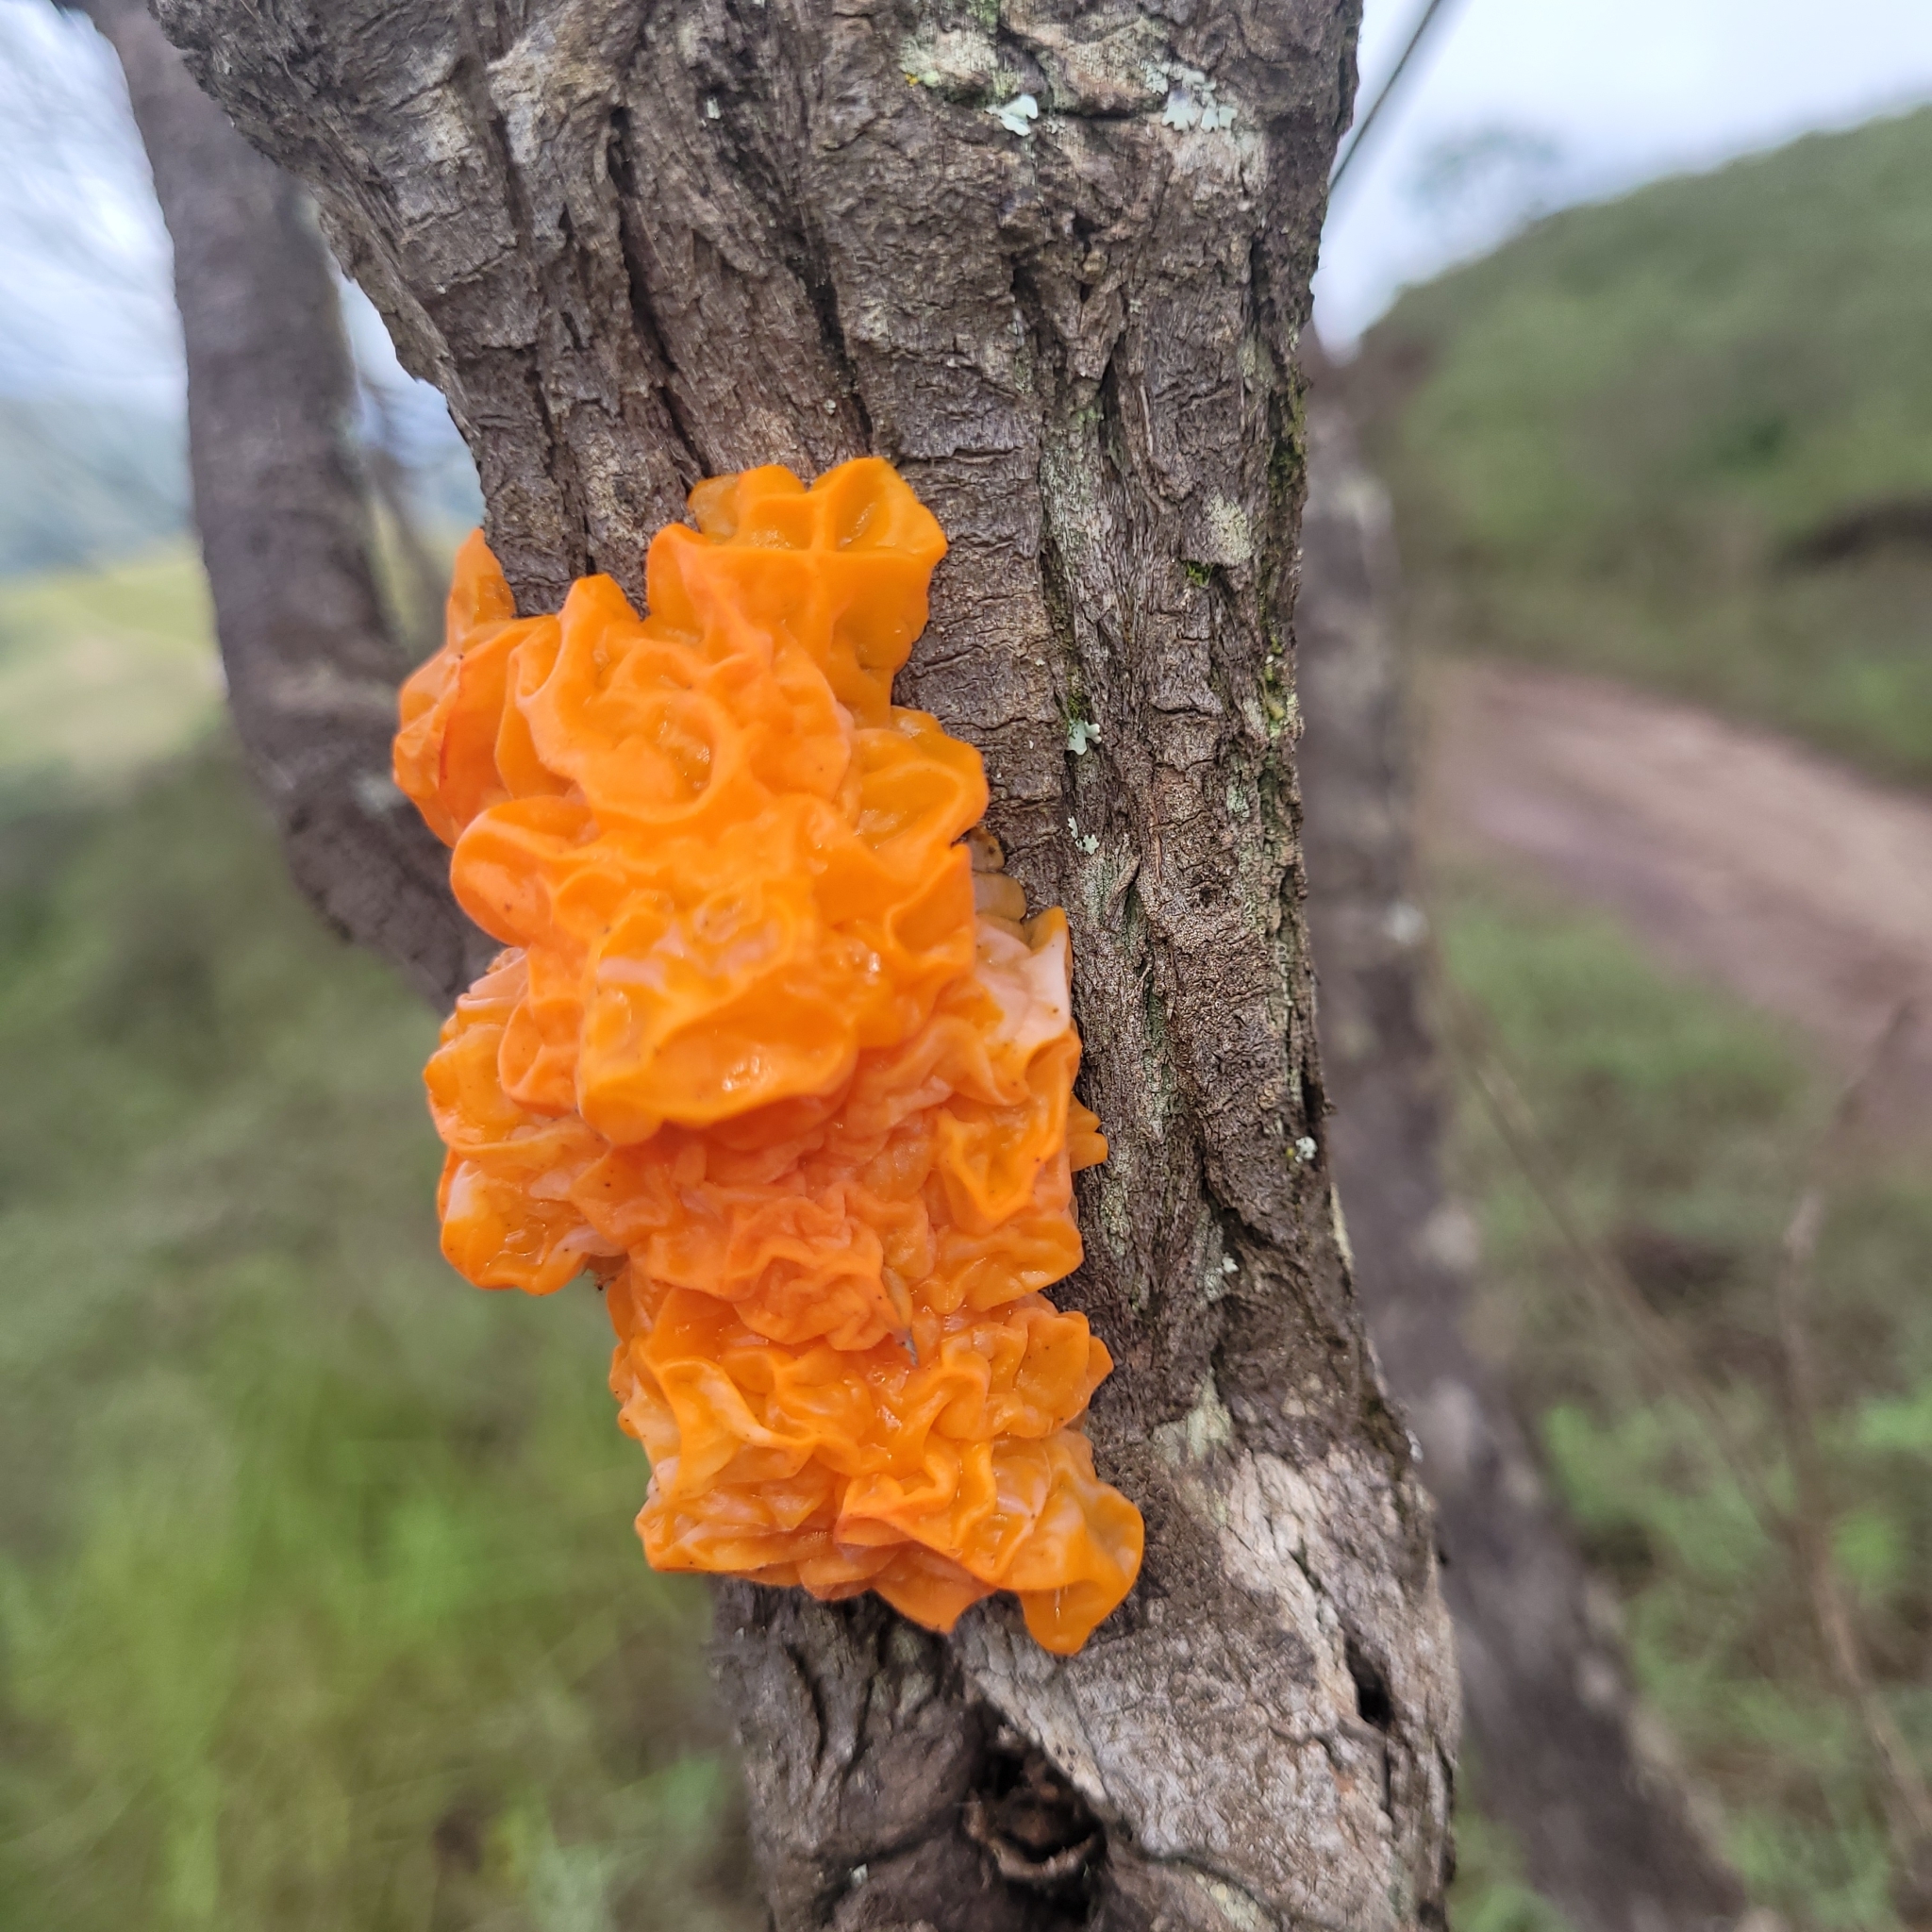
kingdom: Fungi
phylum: Basidiomycota
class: Tremellomycetes
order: Tremellales
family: Tremellaceae
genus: Tremella
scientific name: Tremella mesenterica
